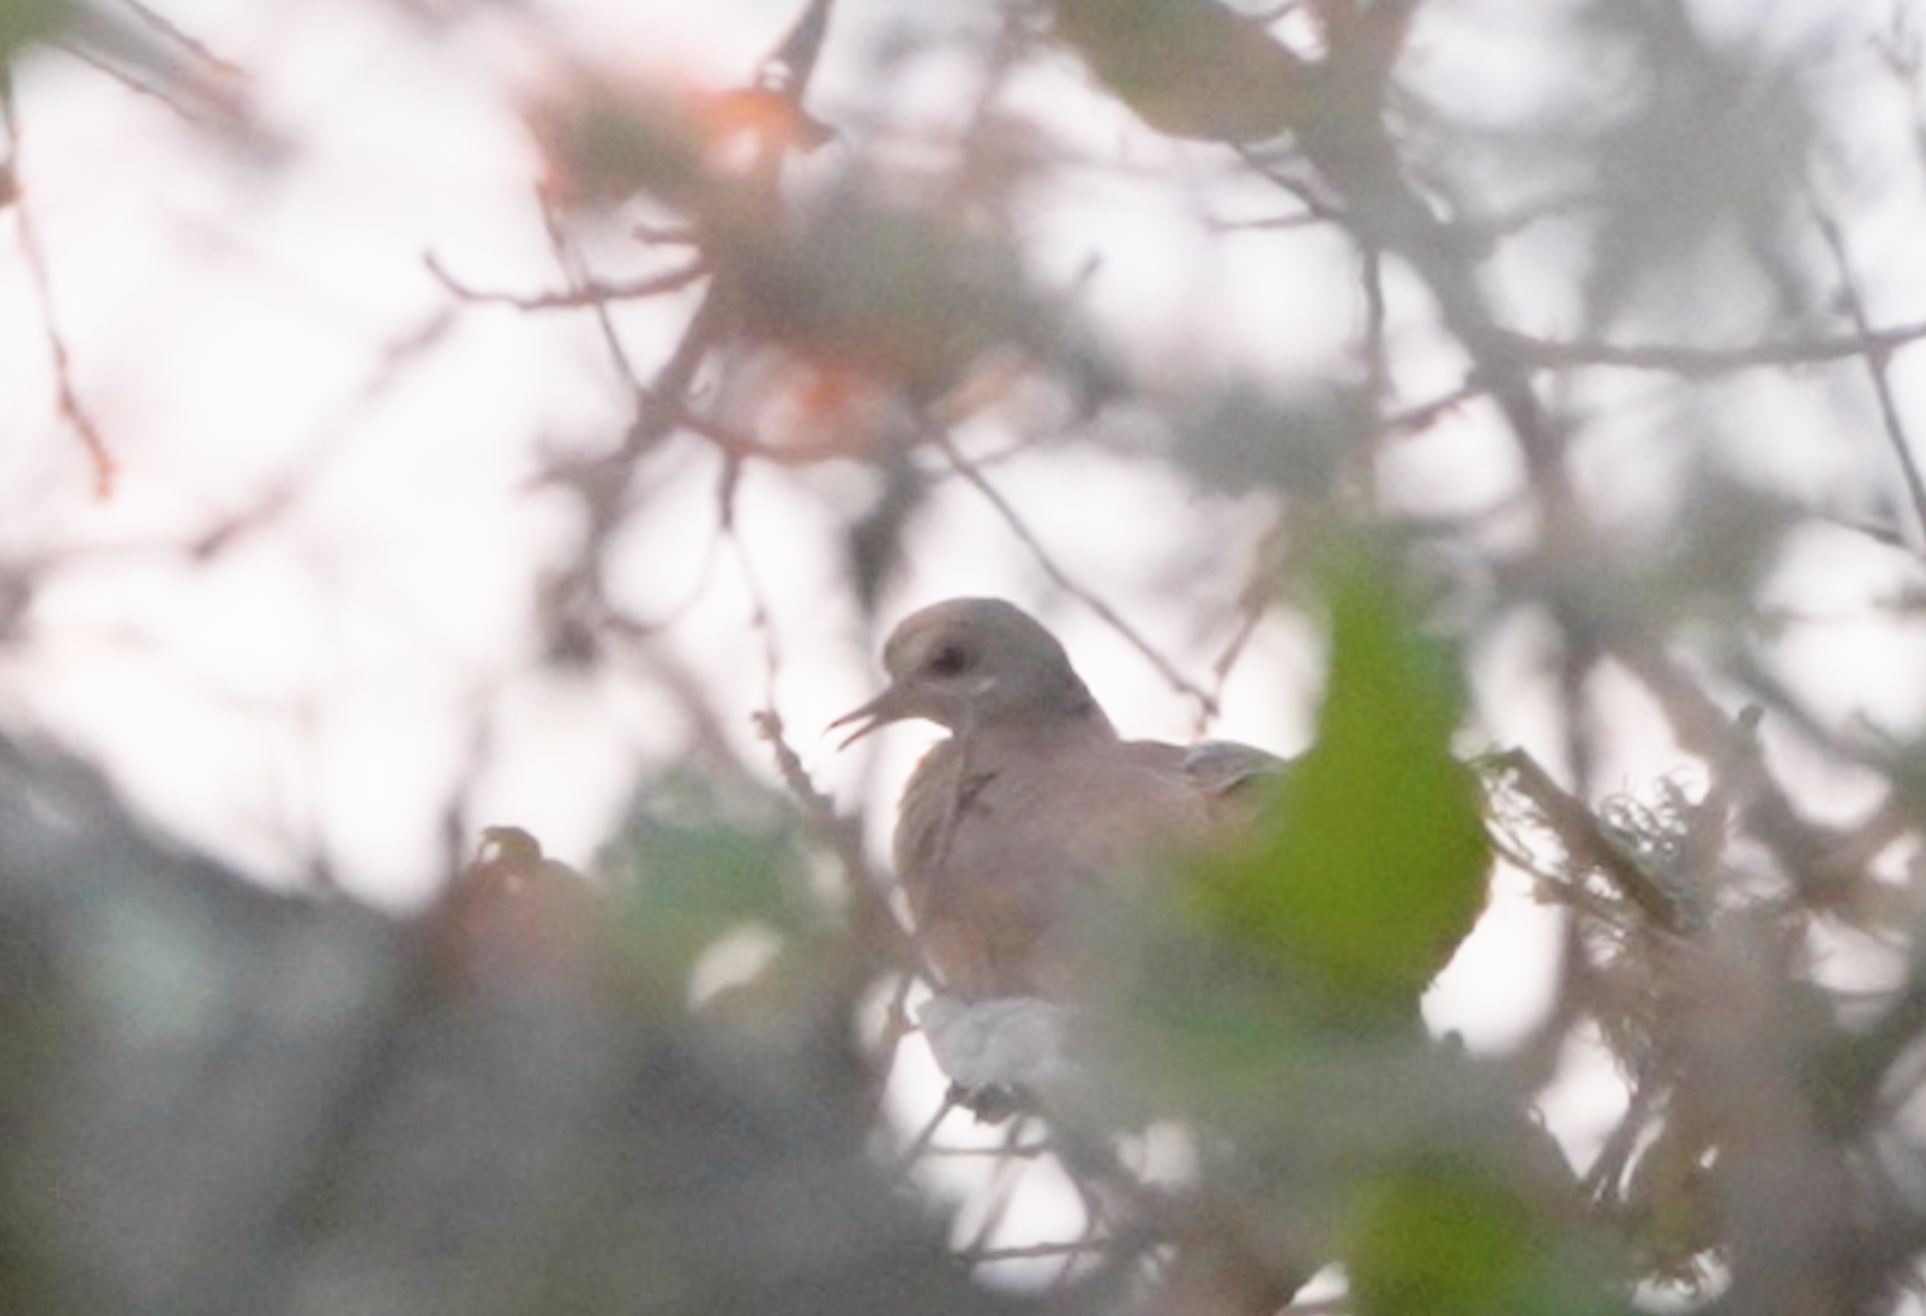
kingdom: Animalia
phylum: Chordata
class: Aves
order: Columbiformes
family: Columbidae
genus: Zenaida
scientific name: Zenaida macroura
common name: Mourning dove
